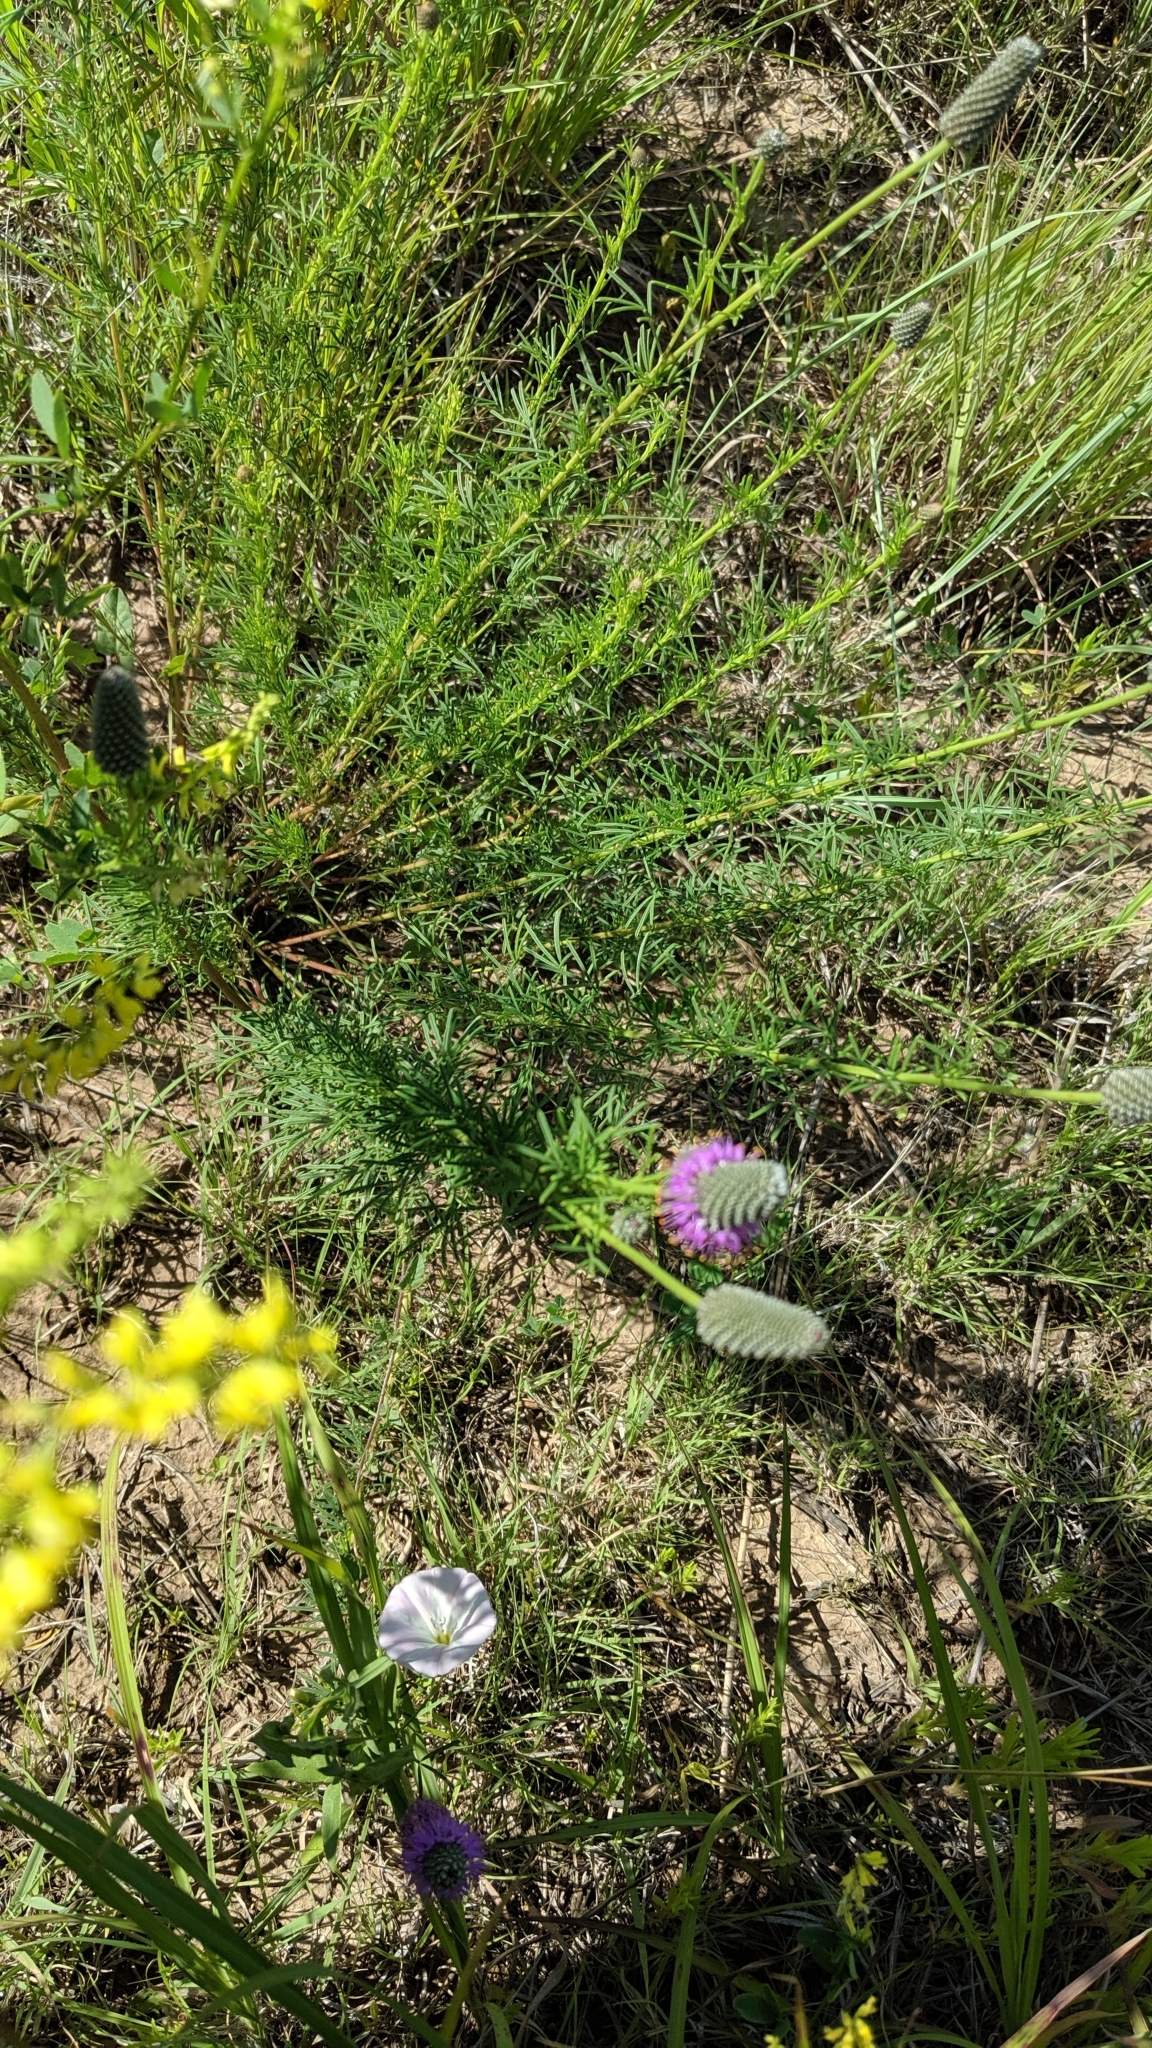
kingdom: Plantae
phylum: Tracheophyta
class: Magnoliopsida
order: Fabales
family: Fabaceae
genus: Dalea
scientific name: Dalea purpurea
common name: Purple prairie-clover
